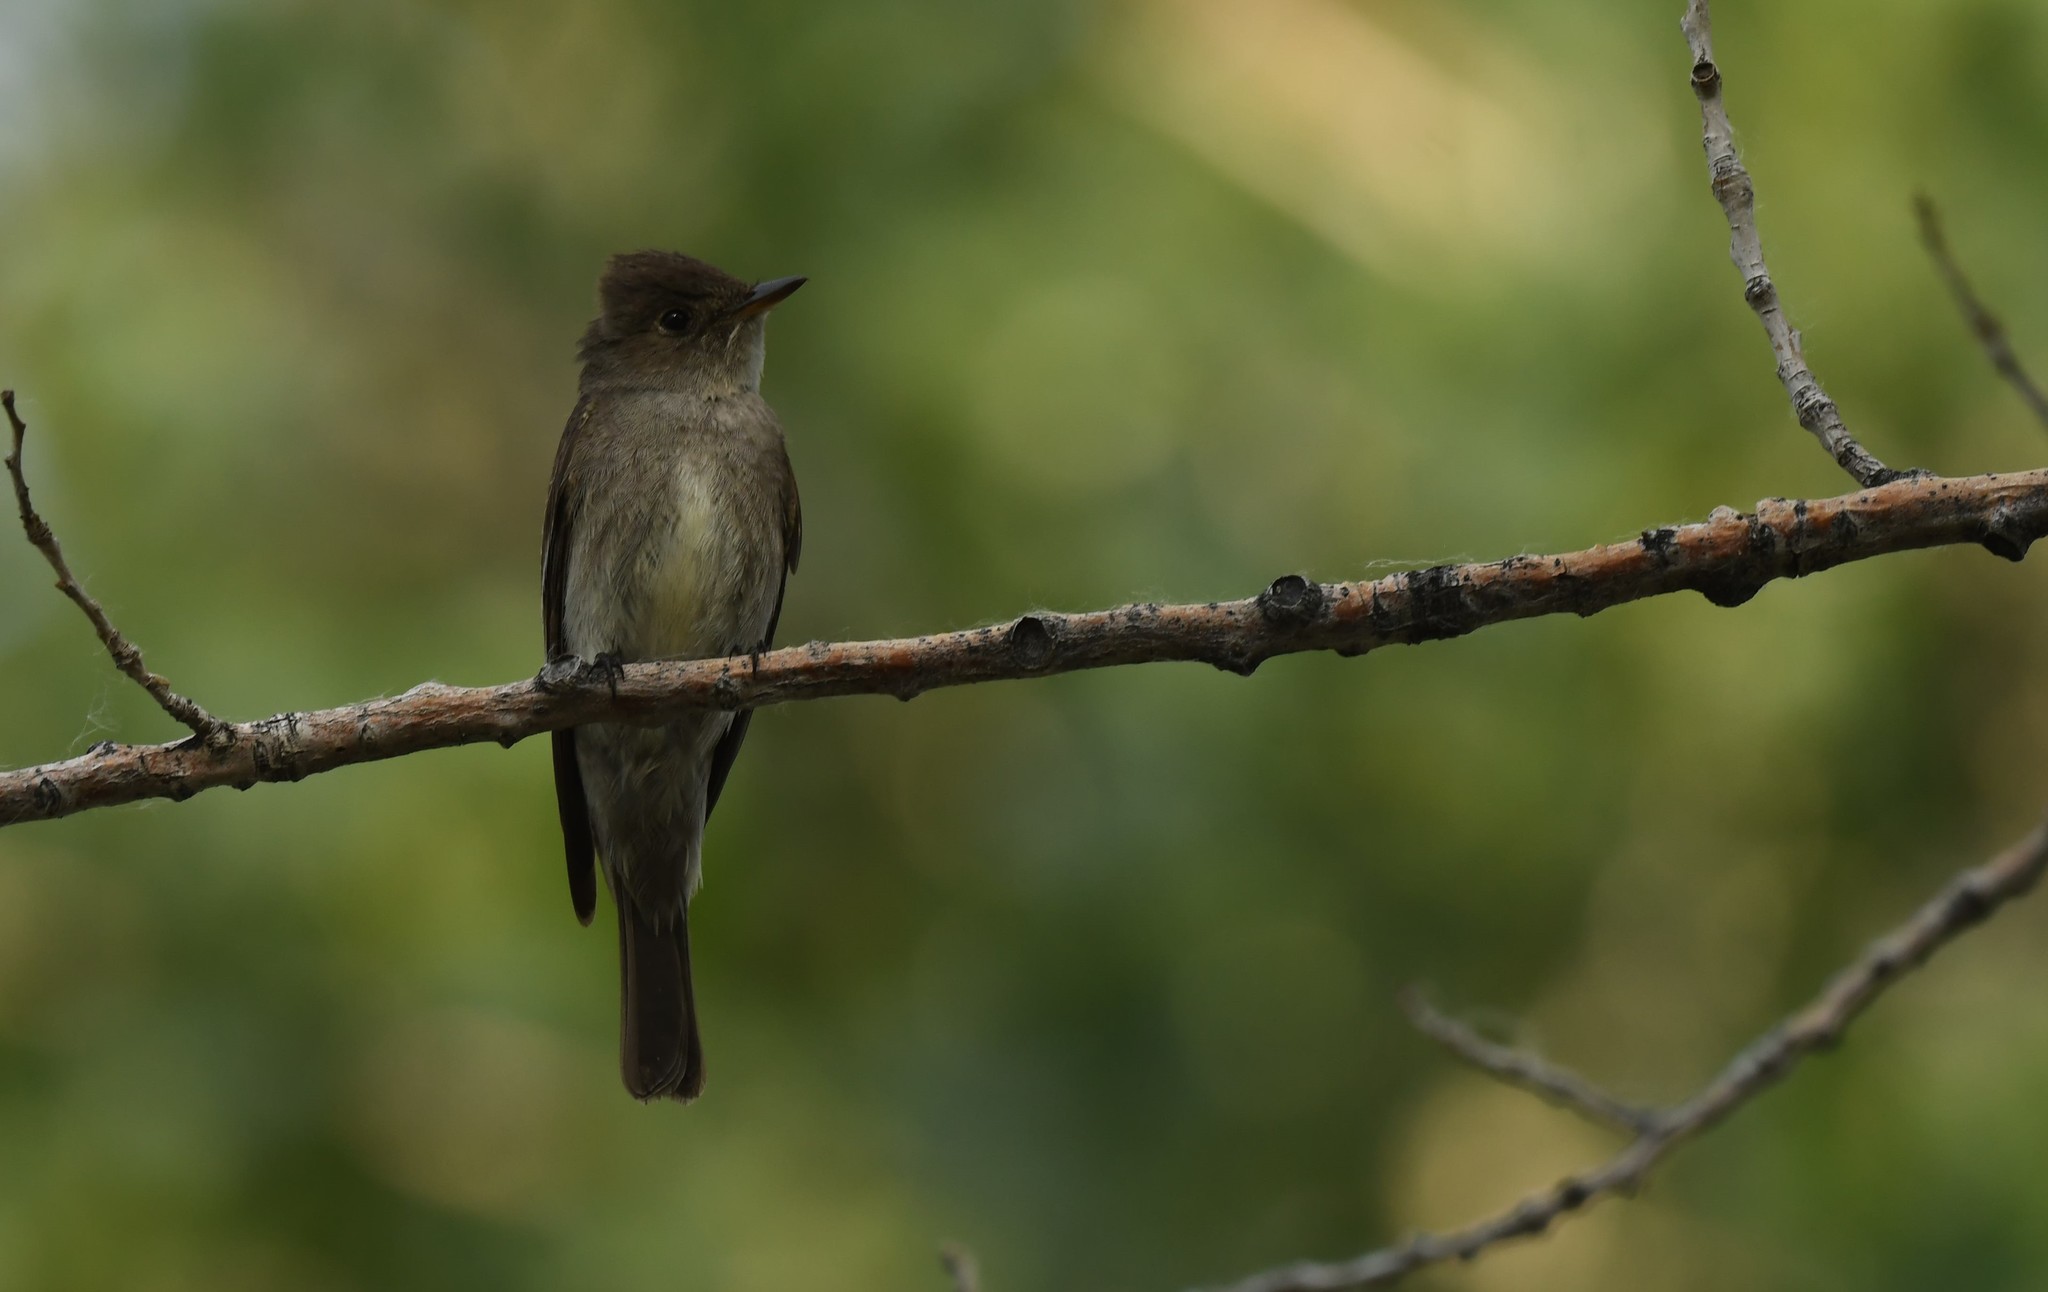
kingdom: Animalia
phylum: Chordata
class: Aves
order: Passeriformes
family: Tyrannidae
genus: Contopus
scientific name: Contopus sordidulus
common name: Western wood-pewee
